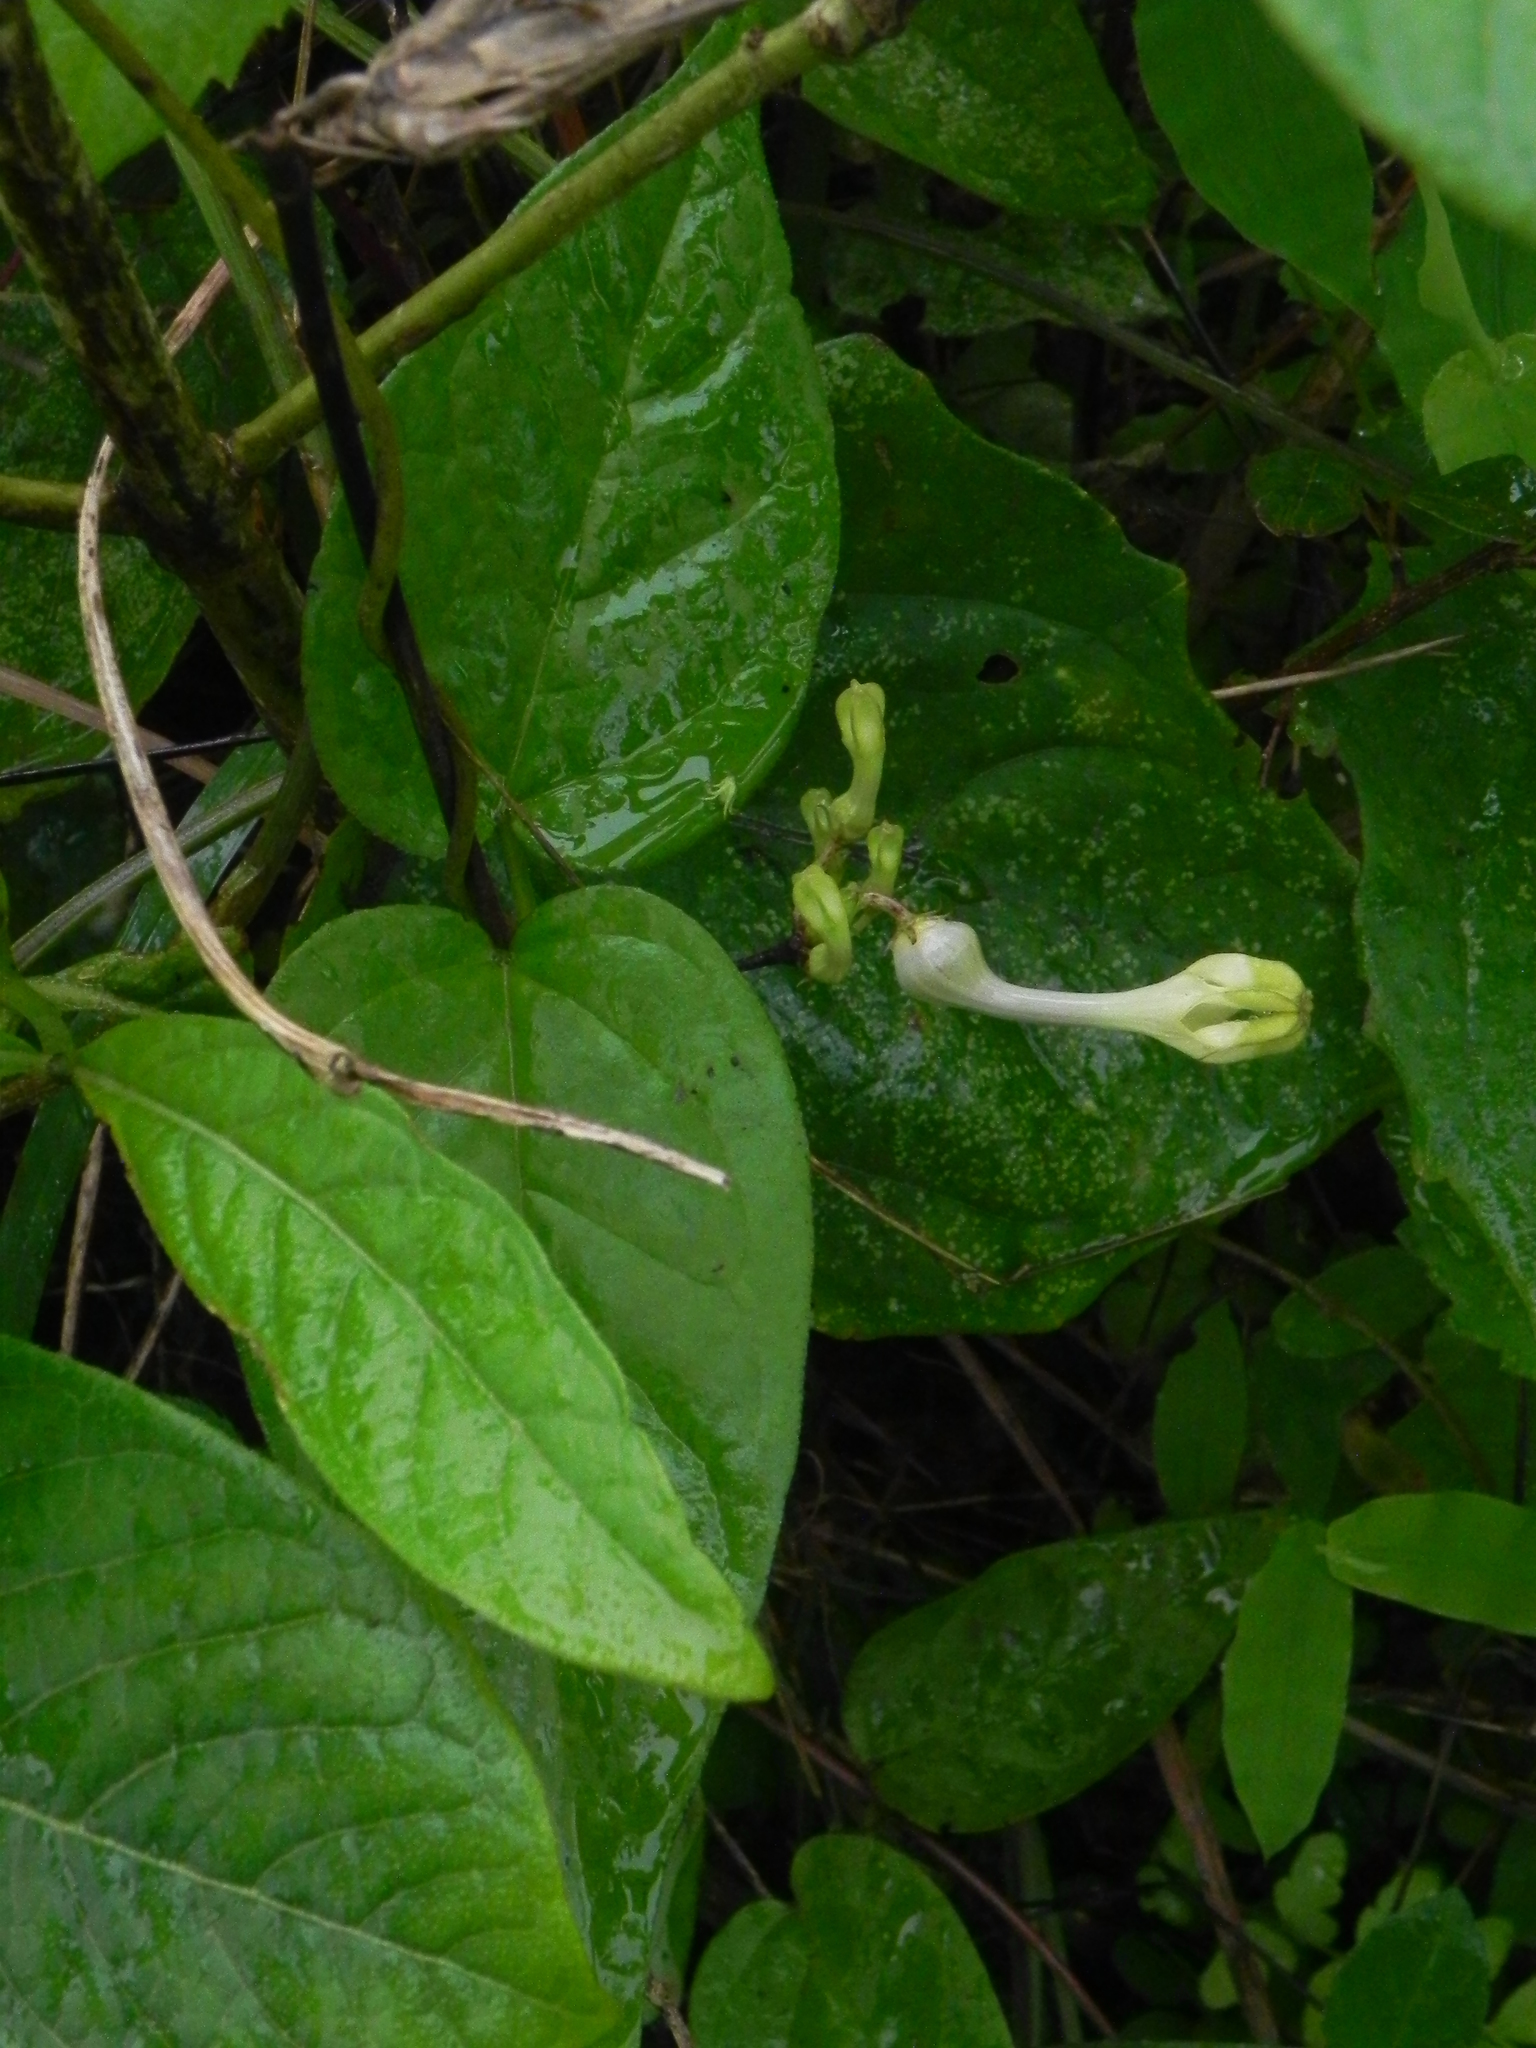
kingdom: Plantae
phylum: Tracheophyta
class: Magnoliopsida
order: Gentianales
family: Apocynaceae
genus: Ceropegia
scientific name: Ceropegia evansii
